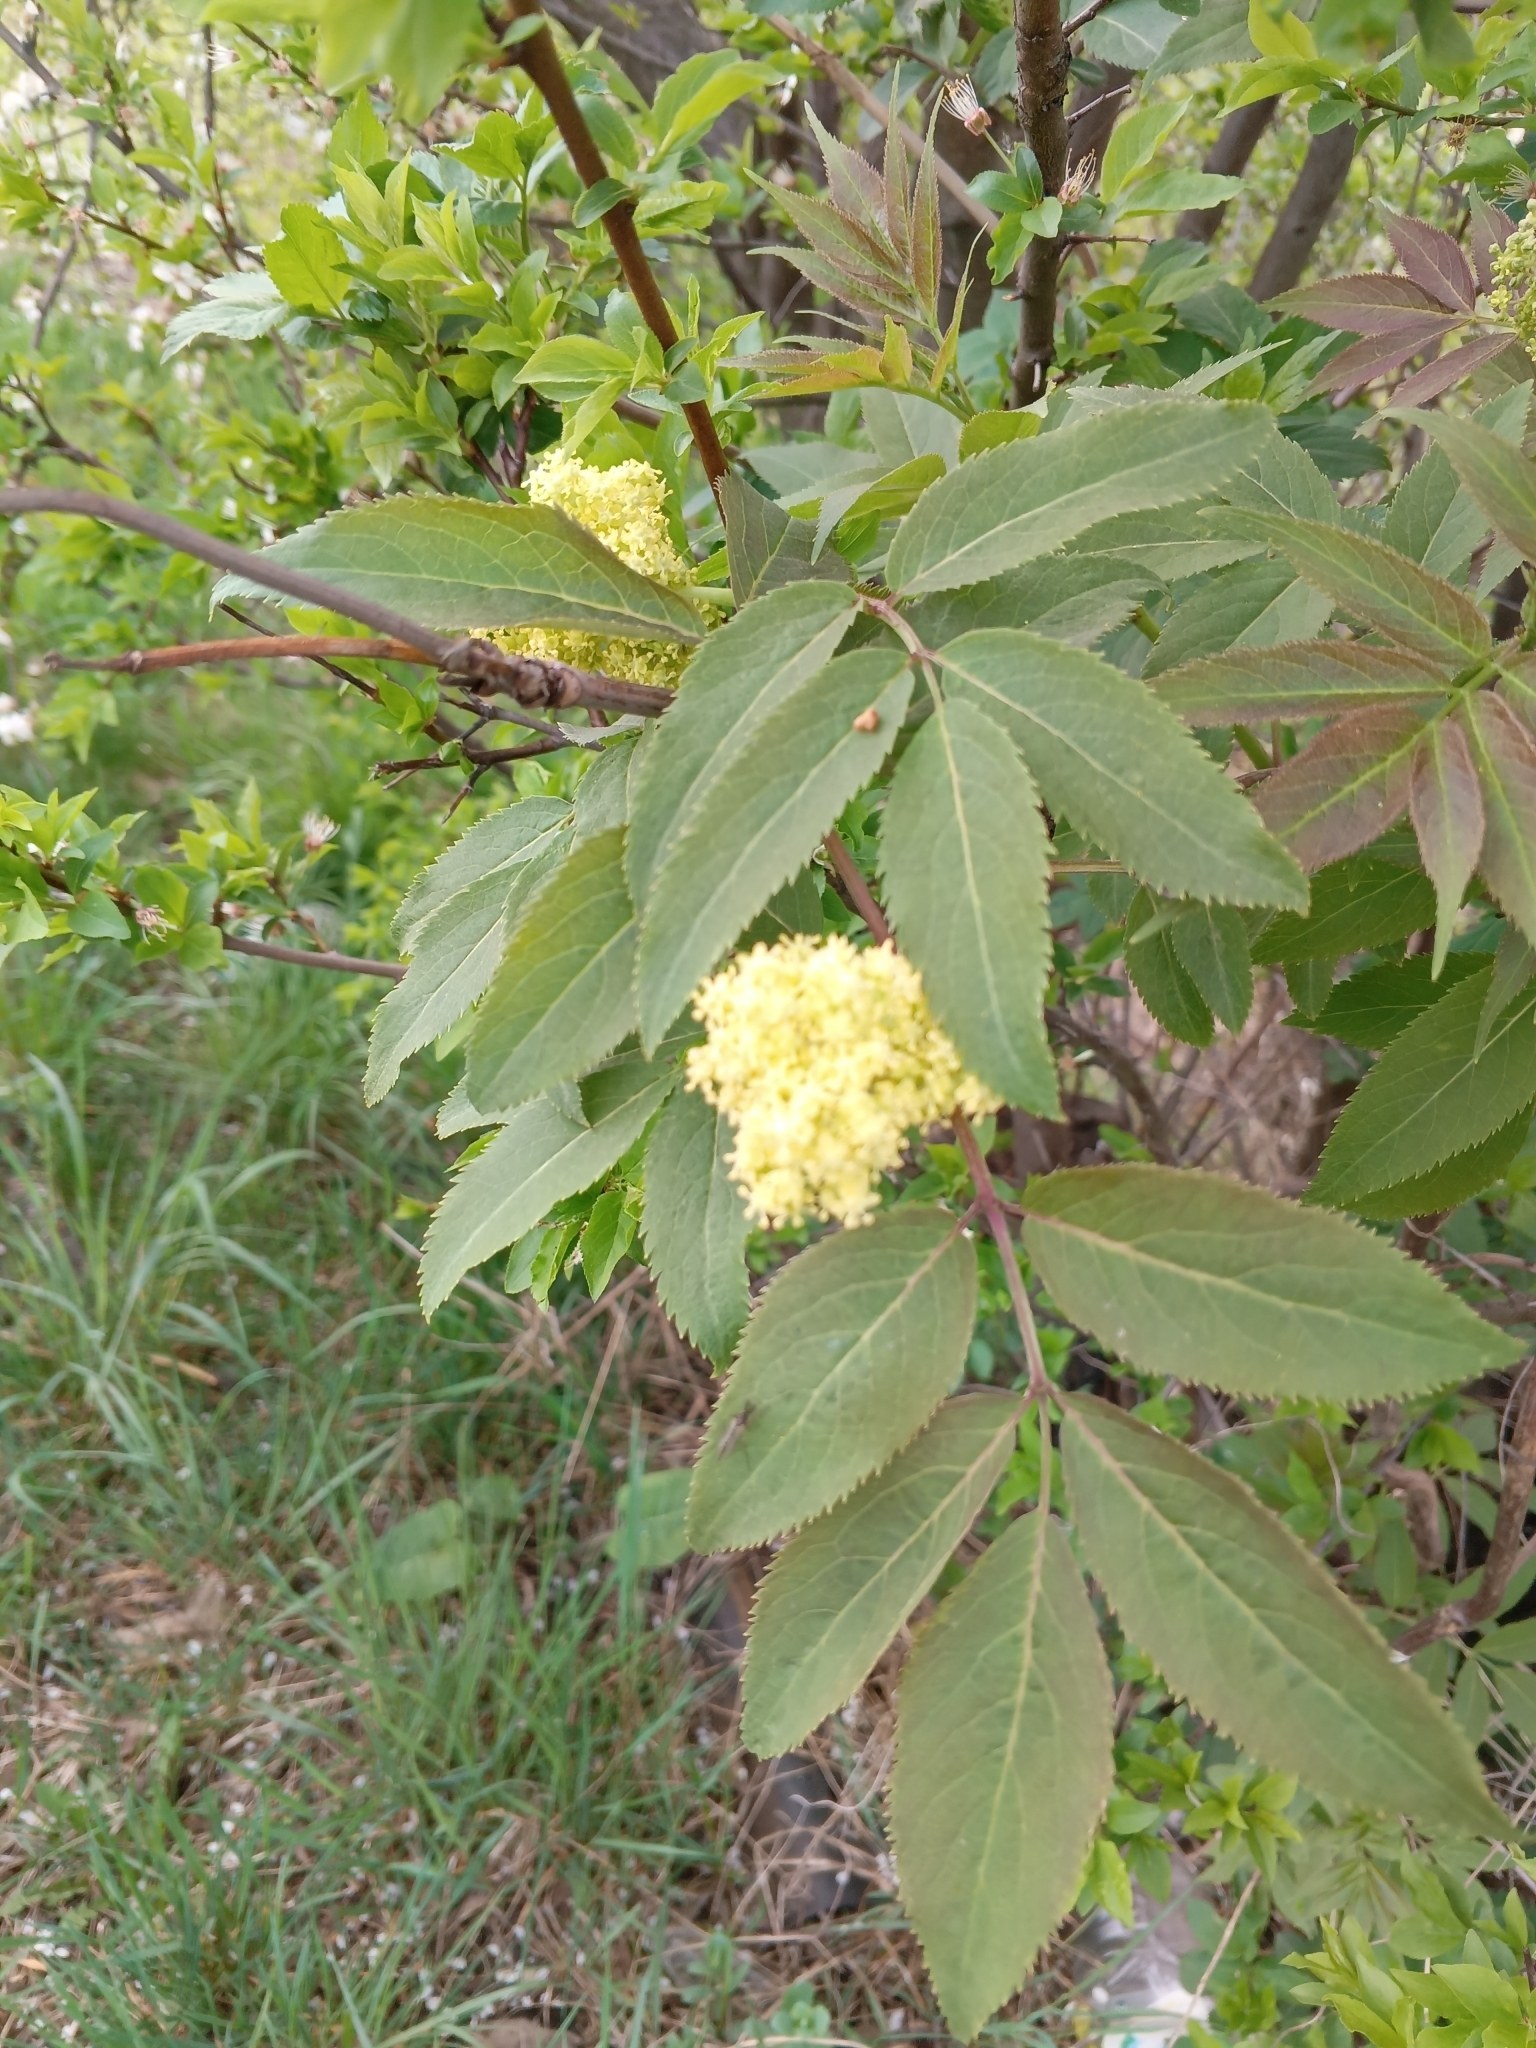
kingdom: Plantae
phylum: Tracheophyta
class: Magnoliopsida
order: Dipsacales
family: Viburnaceae
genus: Sambucus
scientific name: Sambucus racemosa
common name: Red-berried elder
